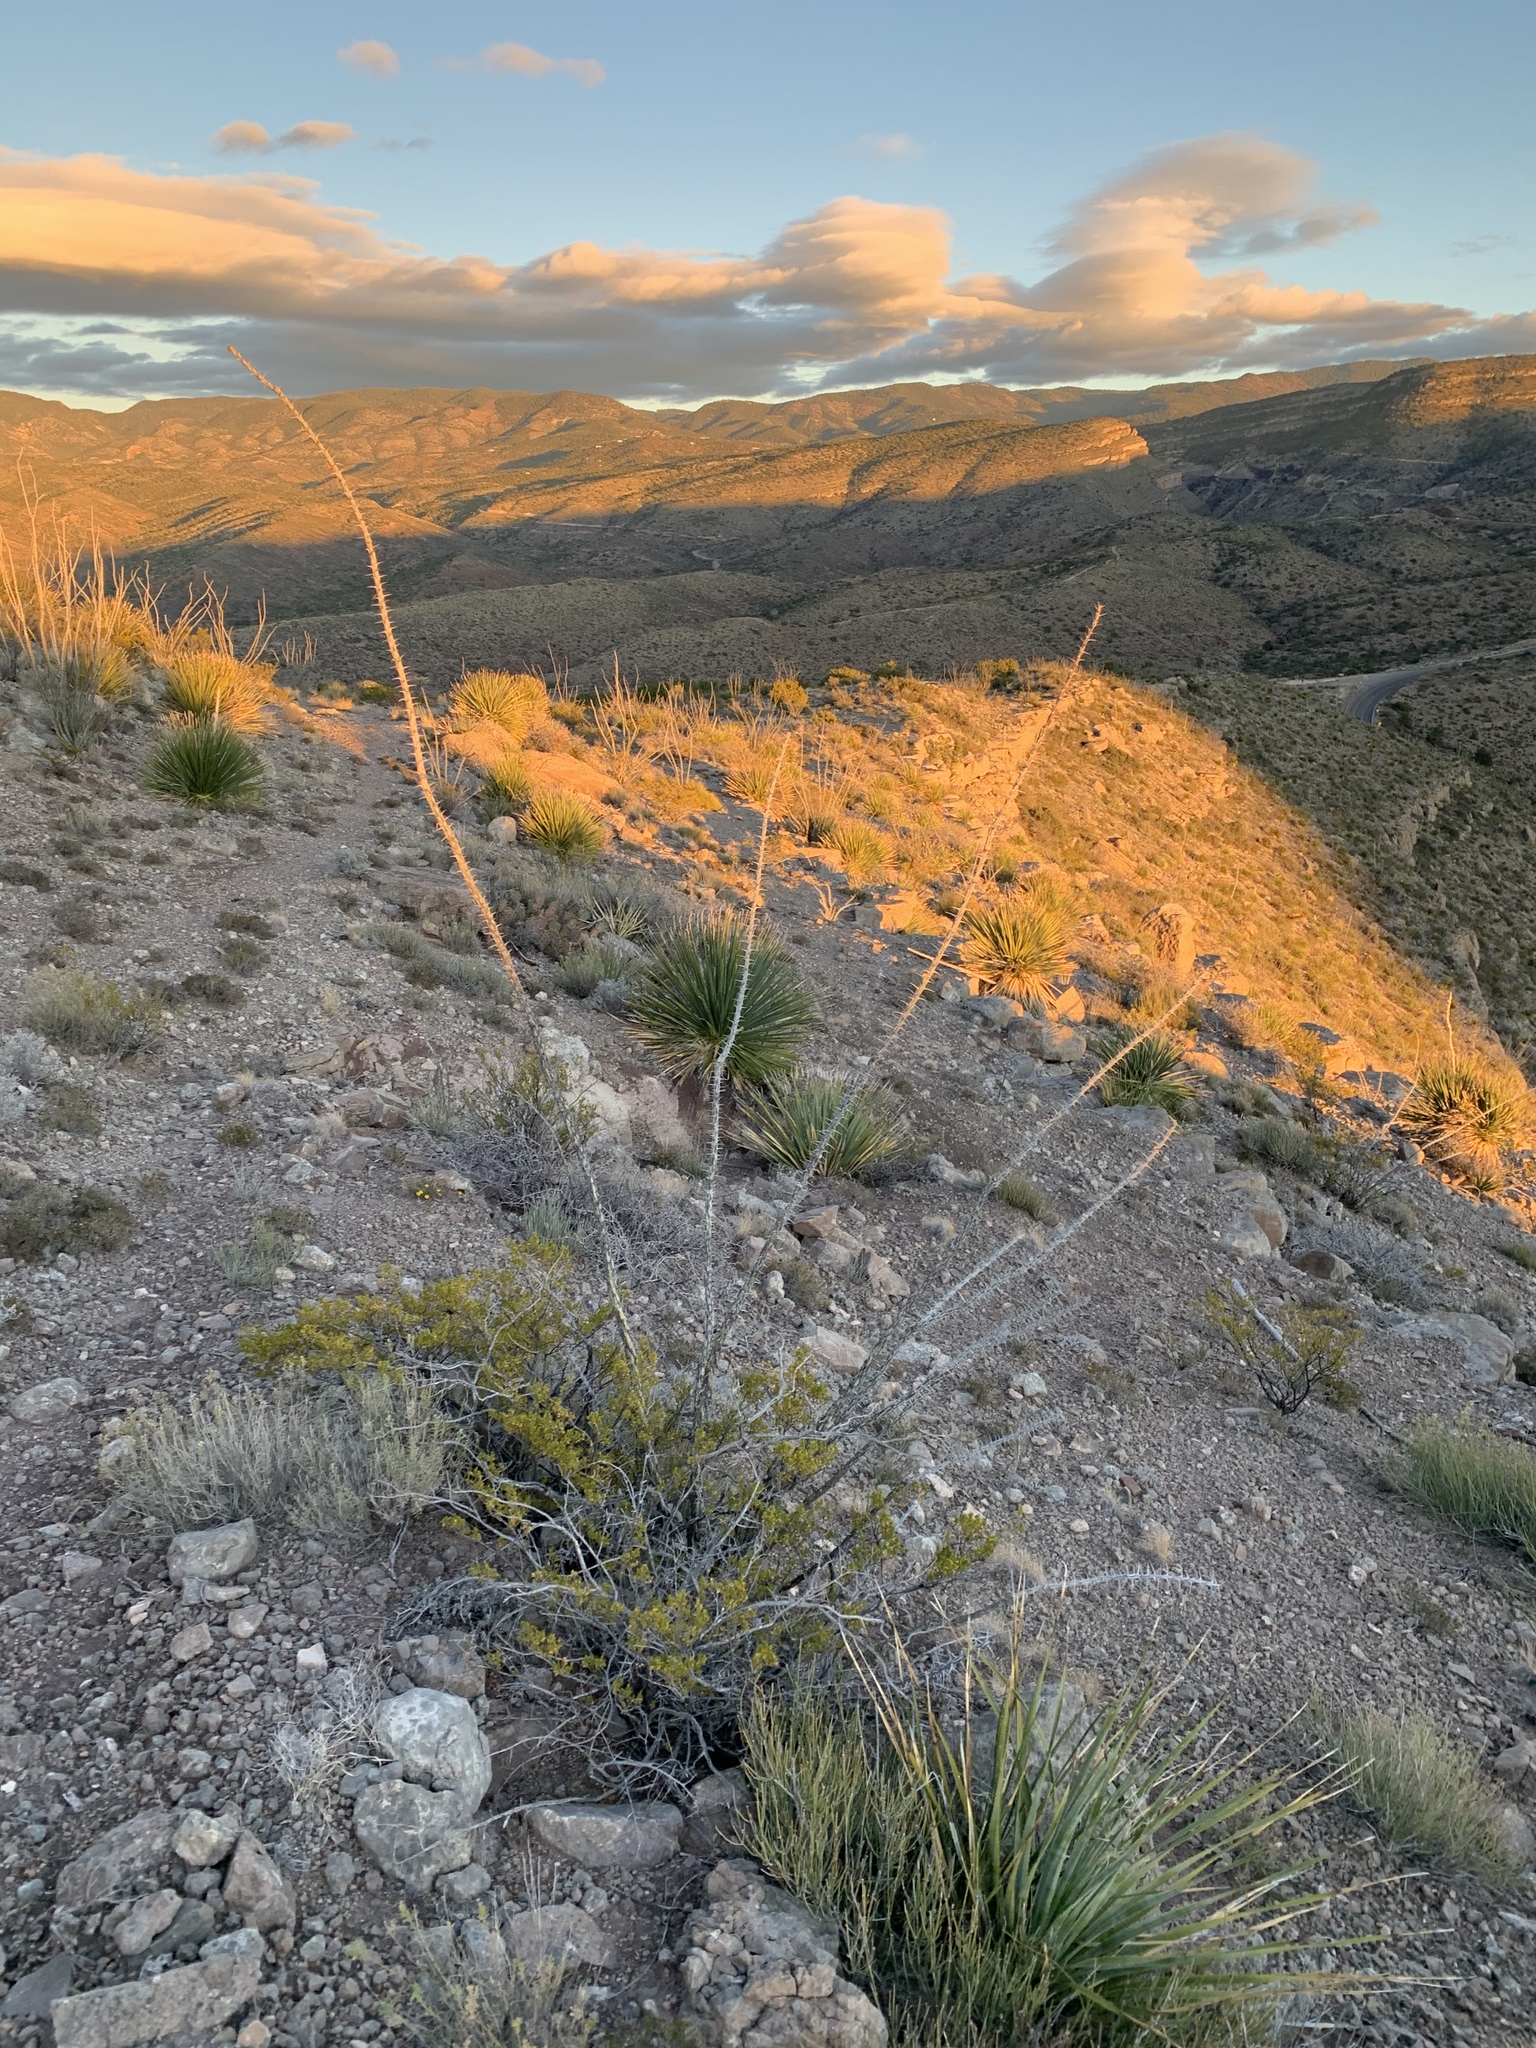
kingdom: Plantae
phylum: Tracheophyta
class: Magnoliopsida
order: Ericales
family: Fouquieriaceae
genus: Fouquieria
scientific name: Fouquieria splendens
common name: Vine-cactus
